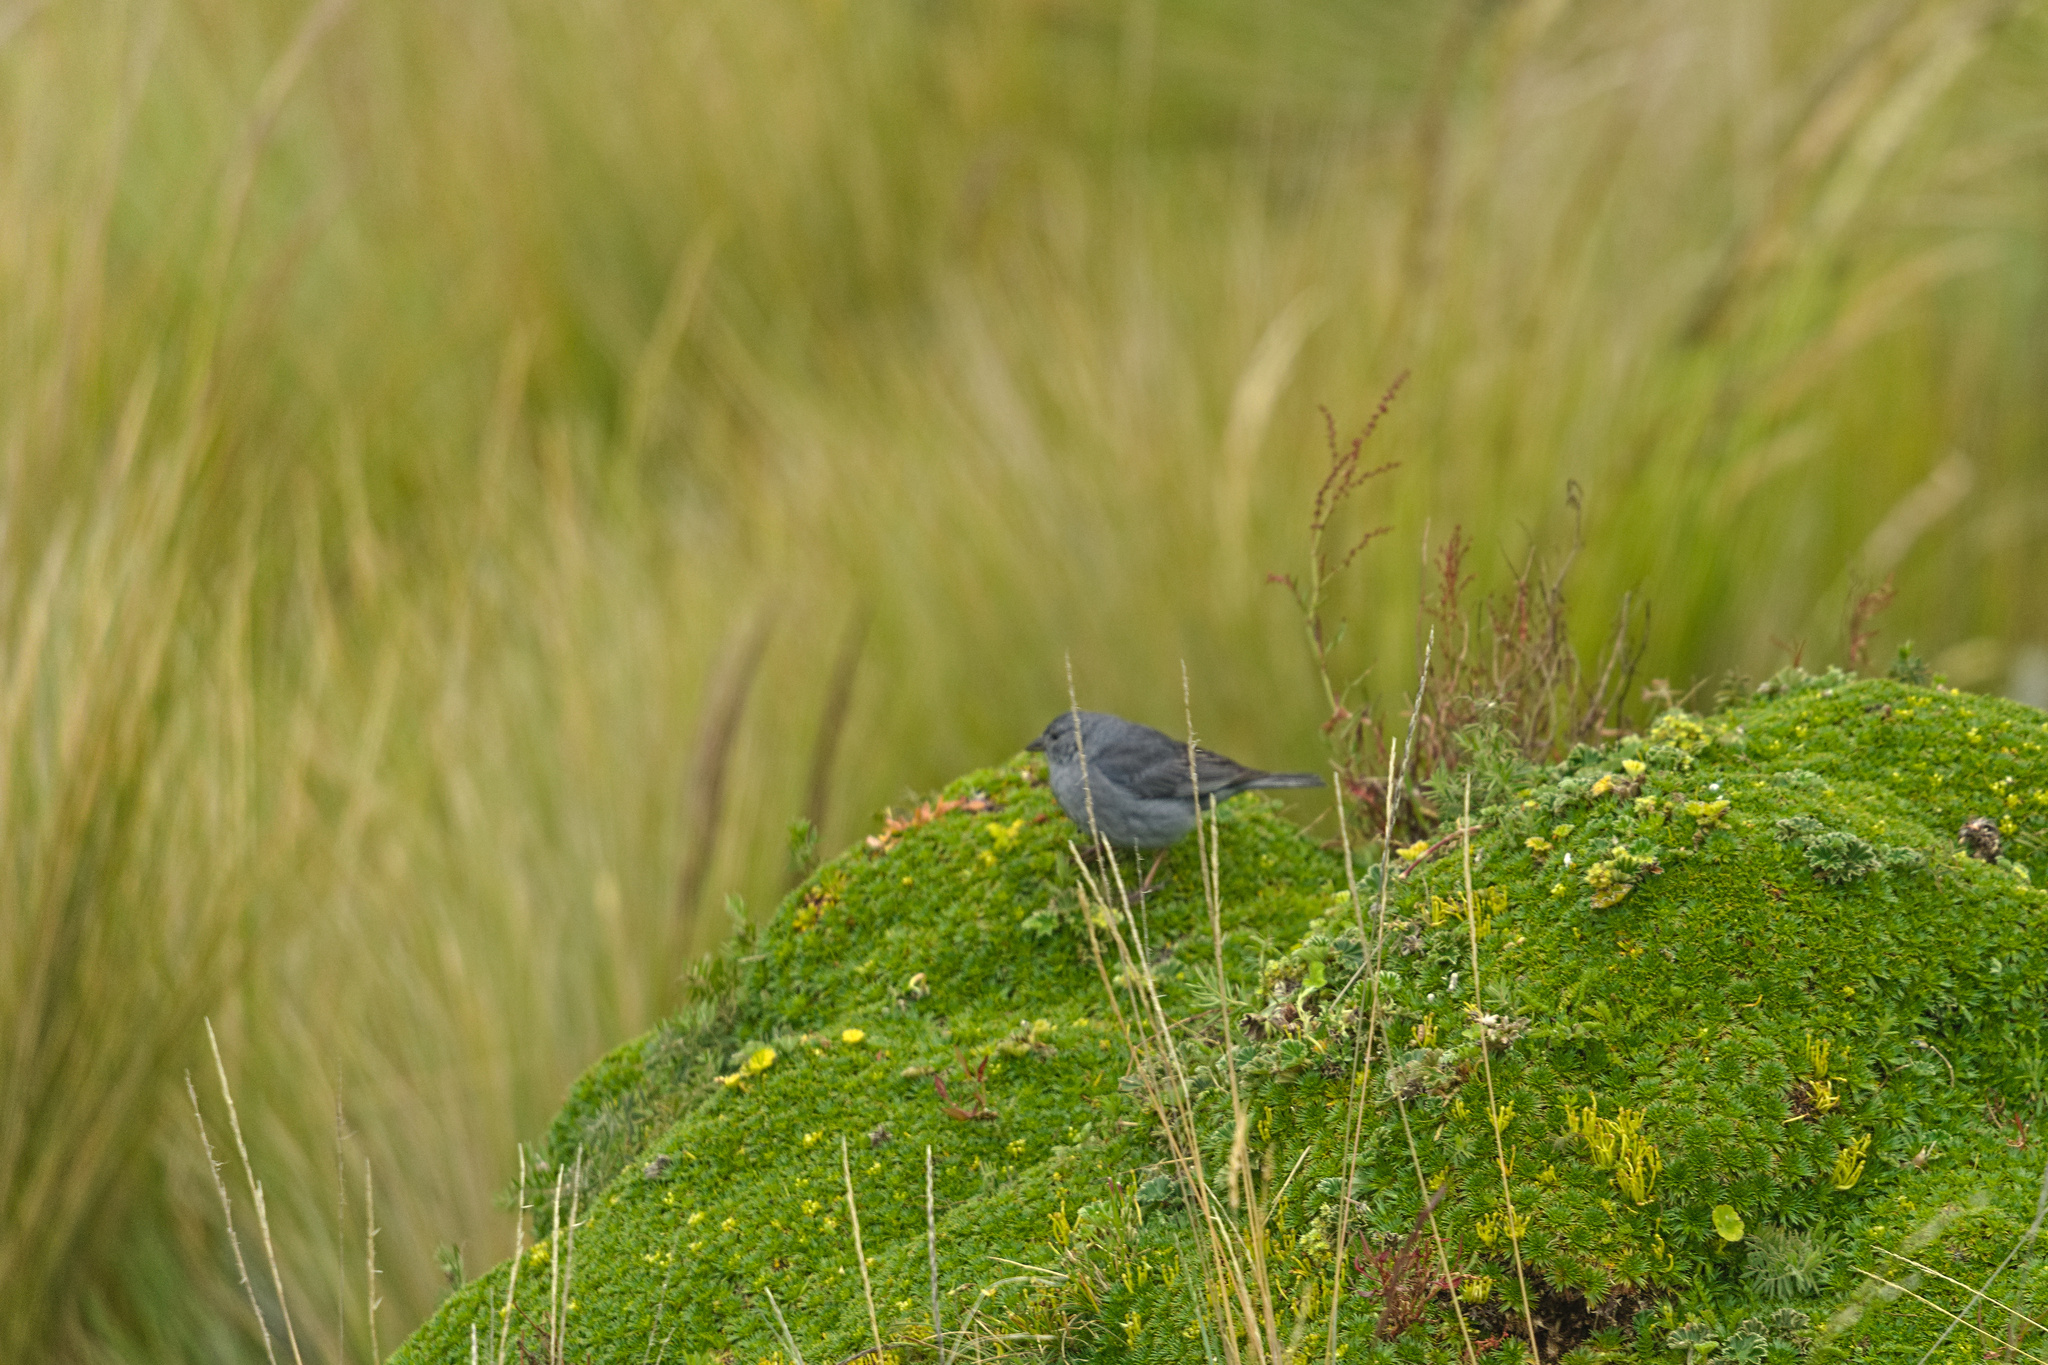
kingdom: Animalia
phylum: Chordata
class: Aves
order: Passeriformes
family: Thraupidae
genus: Geospizopsis
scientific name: Geospizopsis unicolor
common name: Plumbeous sierra-finch
